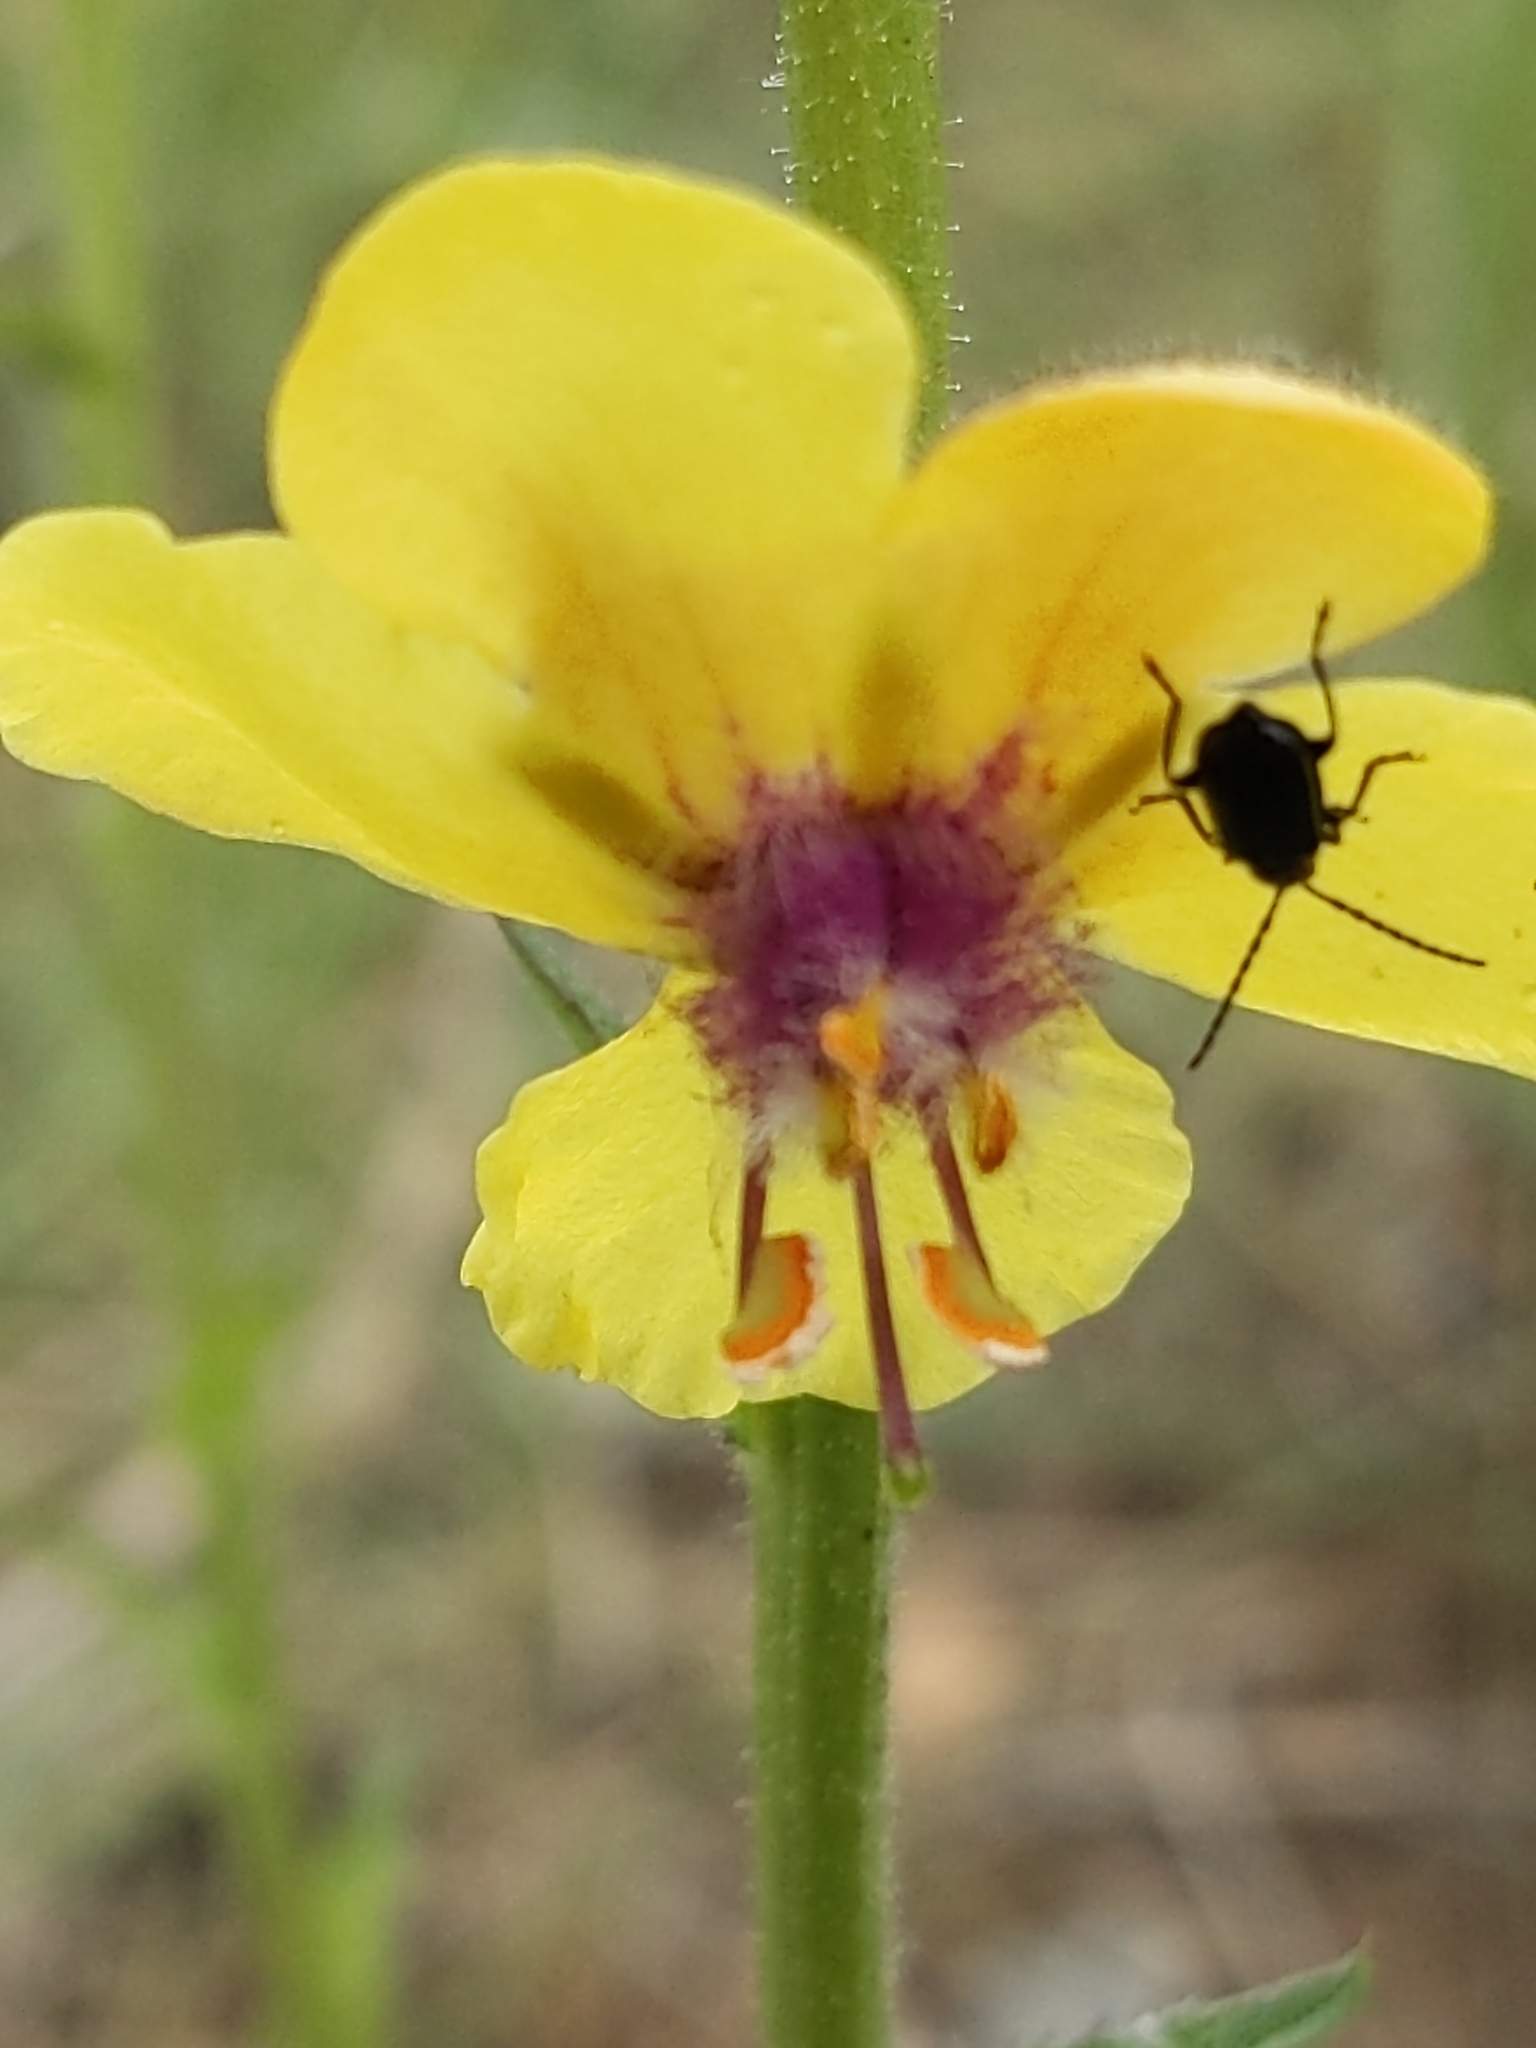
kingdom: Plantae
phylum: Tracheophyta
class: Magnoliopsida
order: Lamiales
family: Scrophulariaceae
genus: Verbascum
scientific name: Verbascum blattaria
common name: Moth mullein
